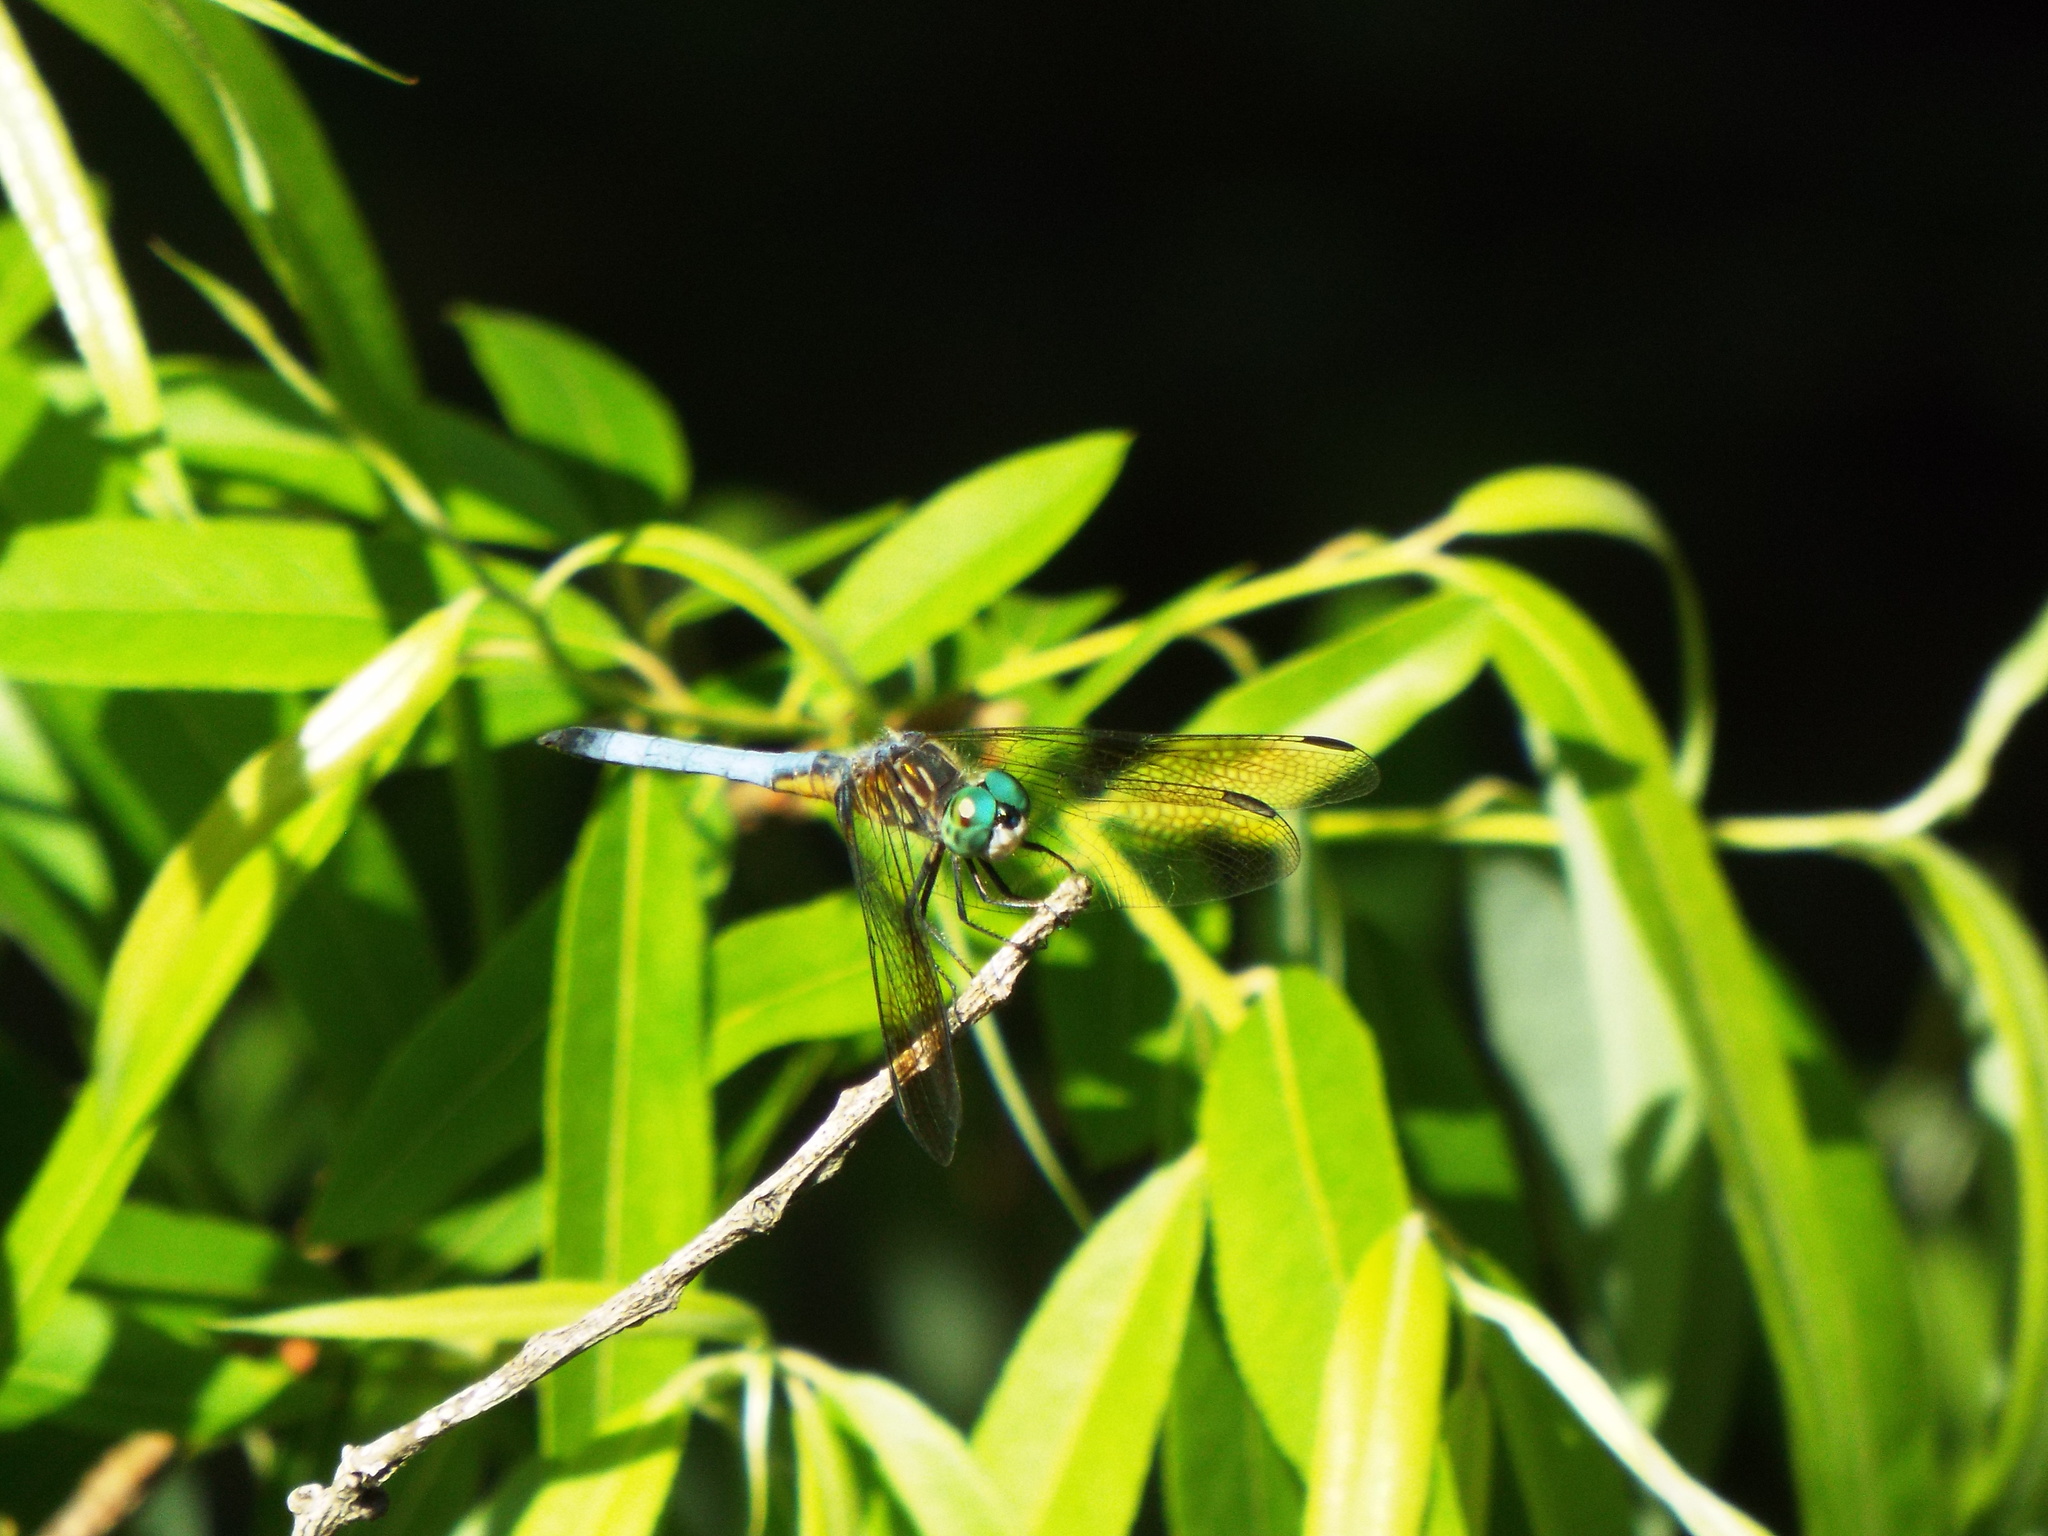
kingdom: Animalia
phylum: Arthropoda
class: Insecta
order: Odonata
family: Libellulidae
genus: Pachydiplax
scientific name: Pachydiplax longipennis
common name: Blue dasher
